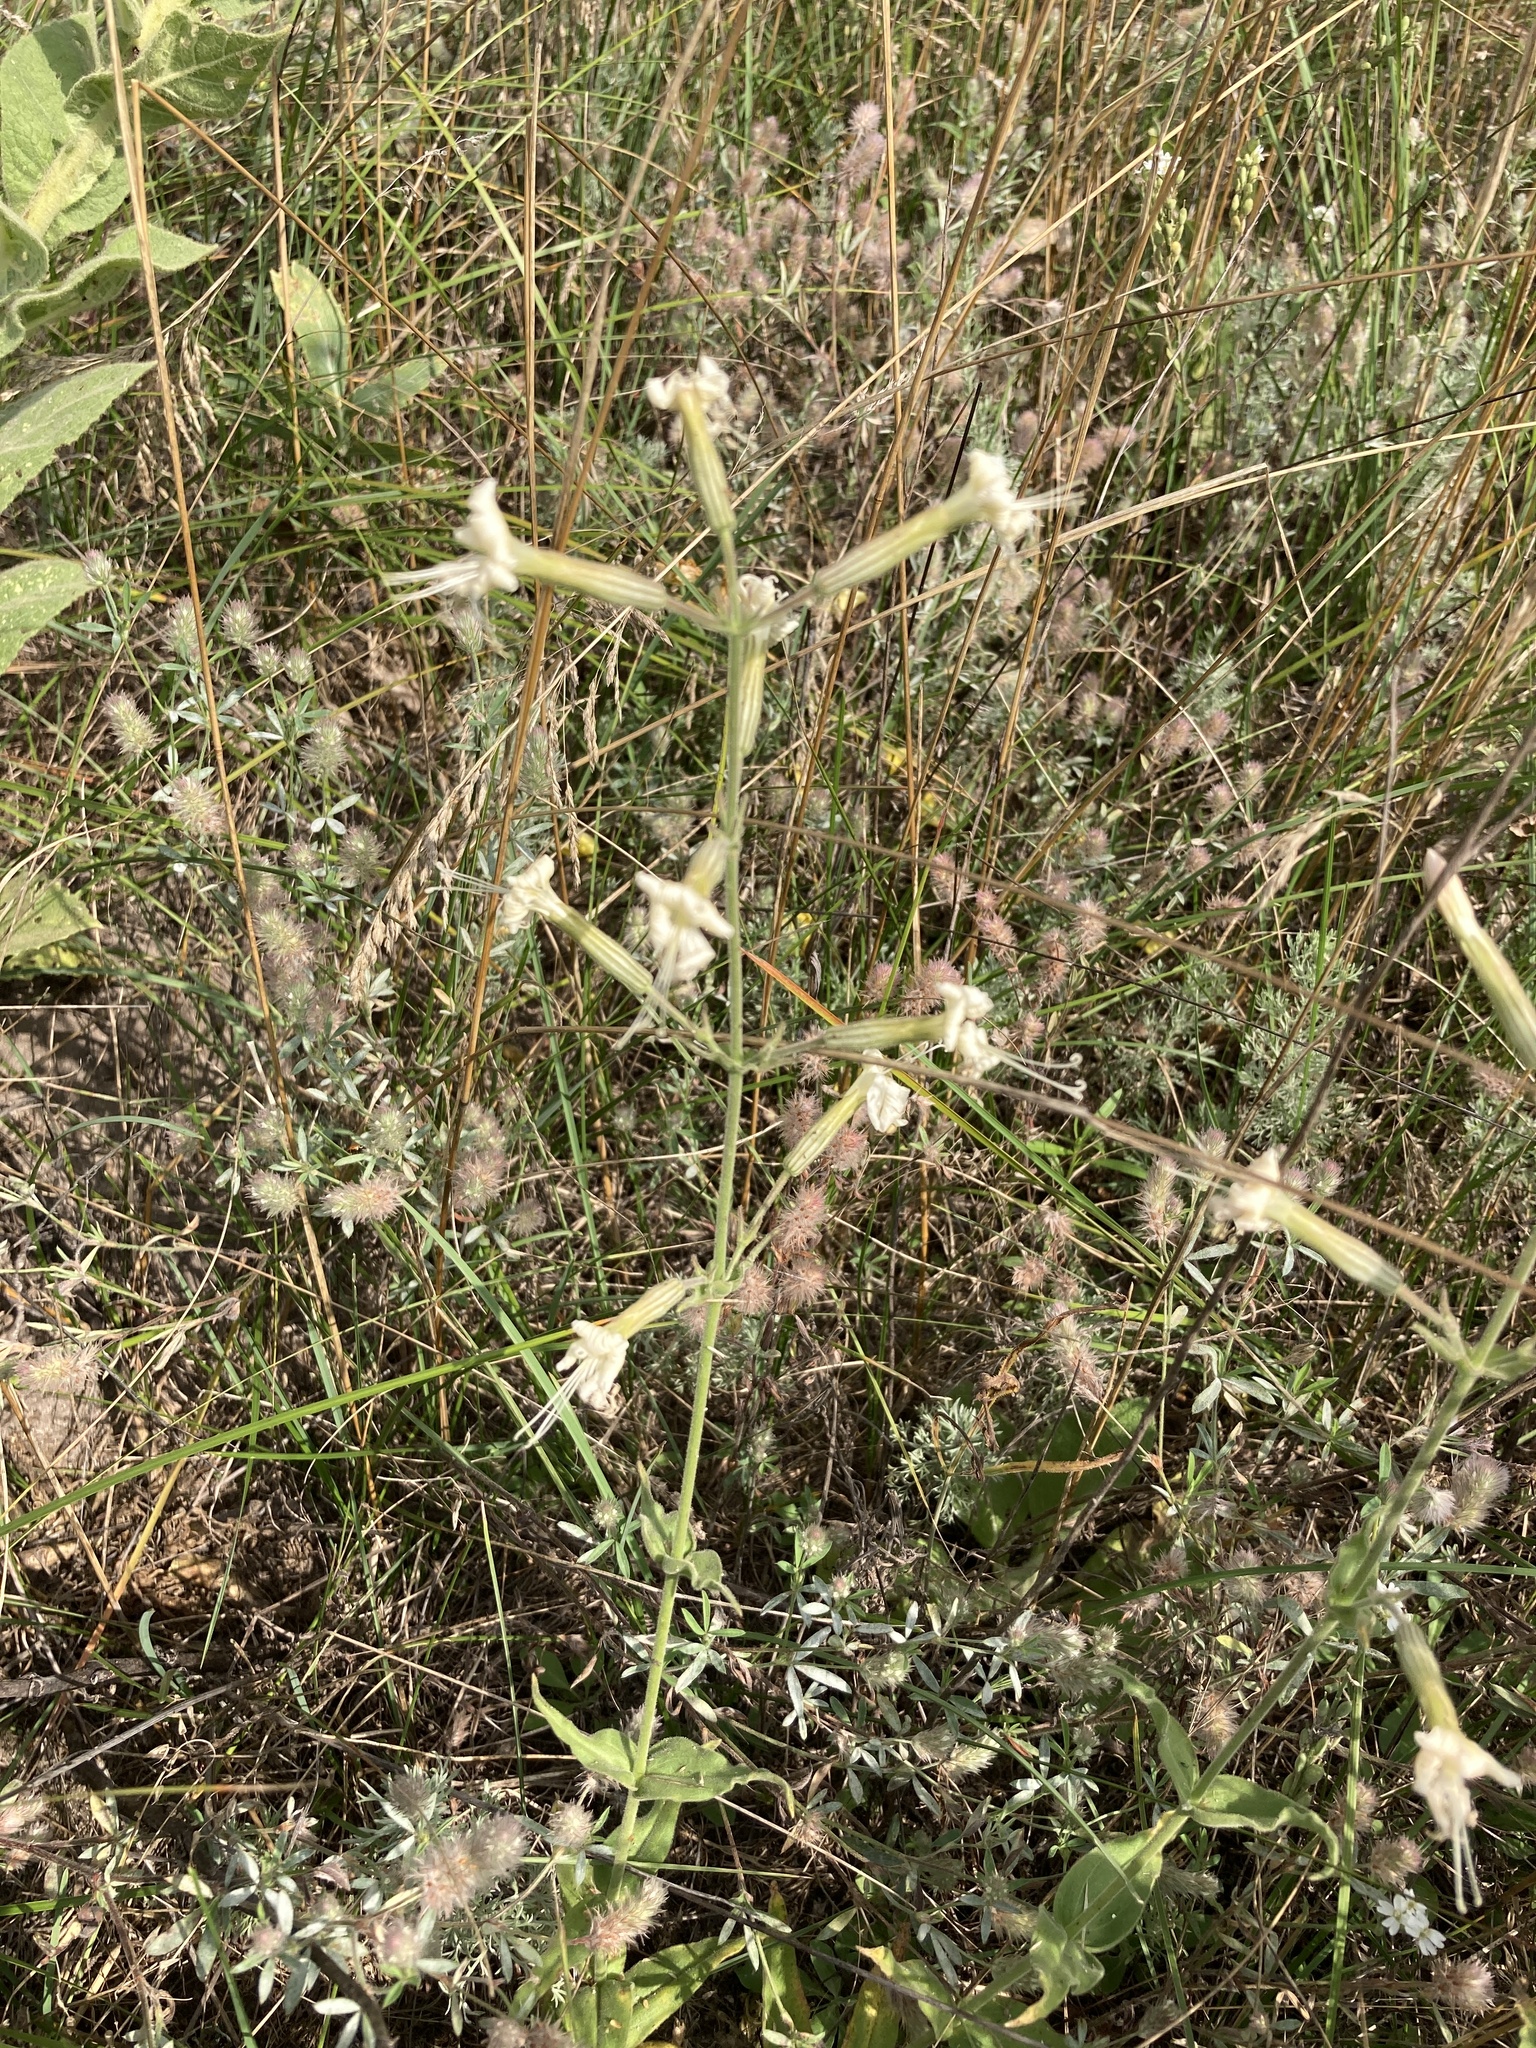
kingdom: Plantae
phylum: Tracheophyta
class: Magnoliopsida
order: Caryophyllales
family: Caryophyllaceae
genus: Silene
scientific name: Silene viscosa
